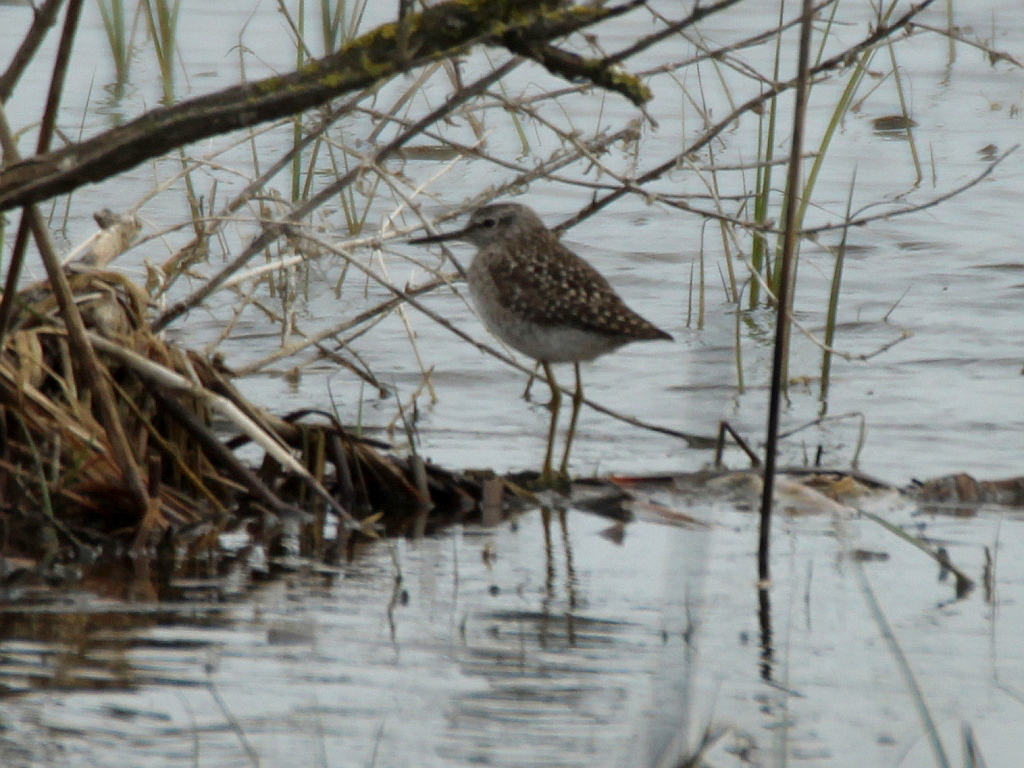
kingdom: Animalia
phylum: Chordata
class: Aves
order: Charadriiformes
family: Scolopacidae
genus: Tringa
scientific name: Tringa glareola
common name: Wood sandpiper
